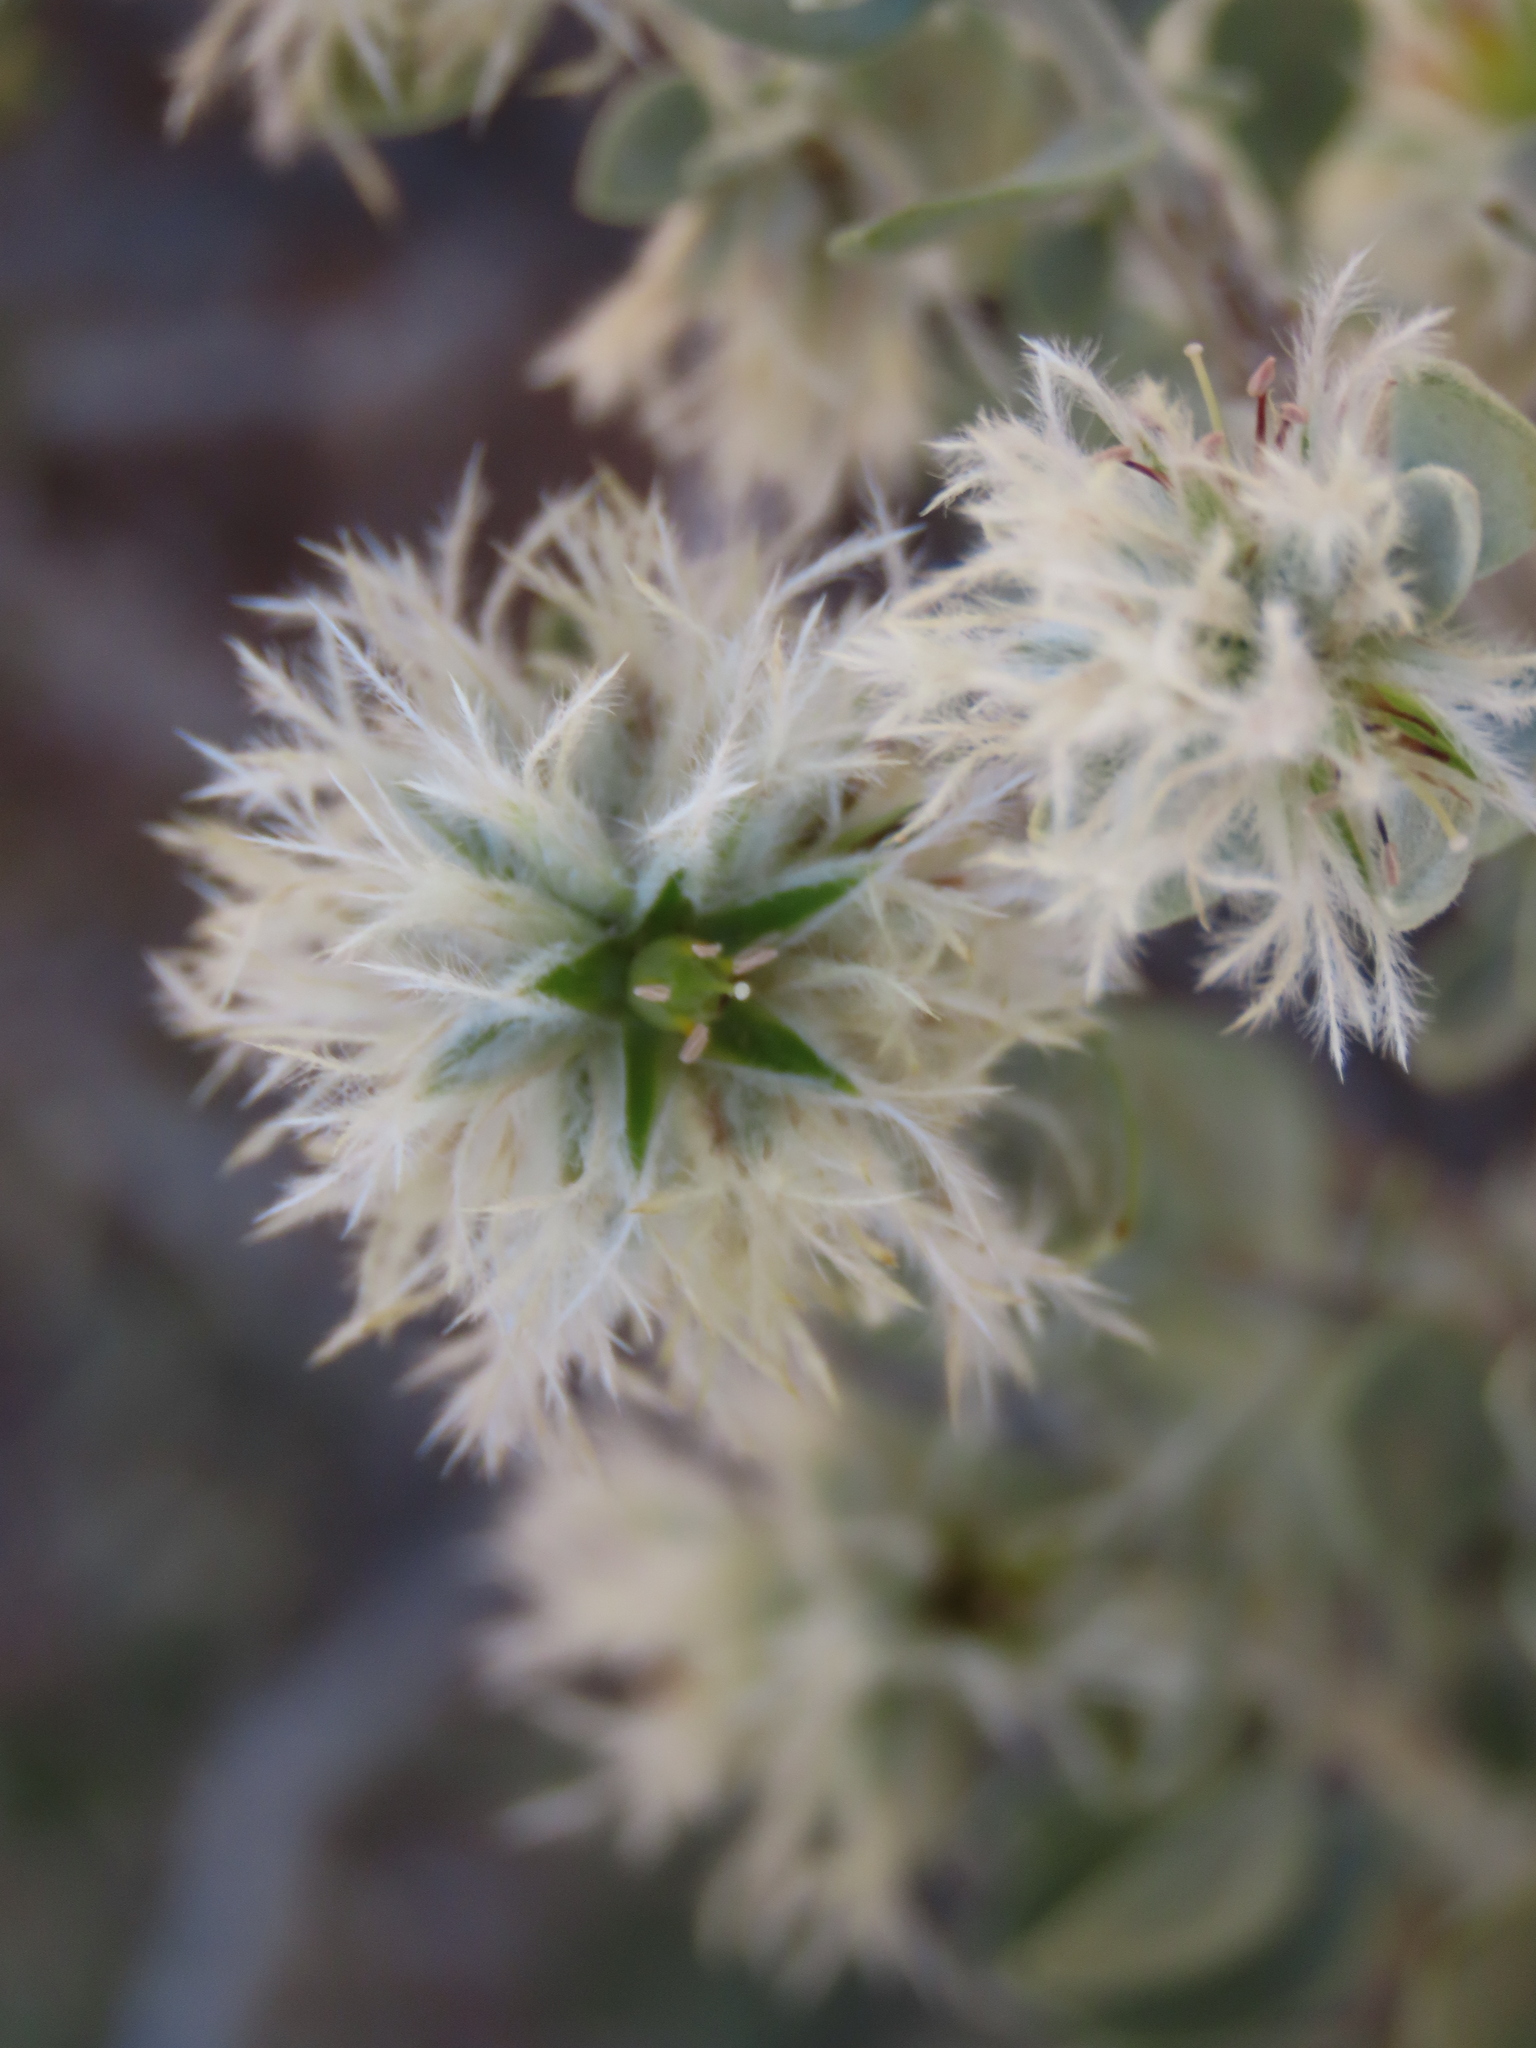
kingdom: Plantae
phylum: Tracheophyta
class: Magnoliopsida
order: Caryophyllales
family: Amaranthaceae
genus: Leucosphaera
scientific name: Leucosphaera bainesii
